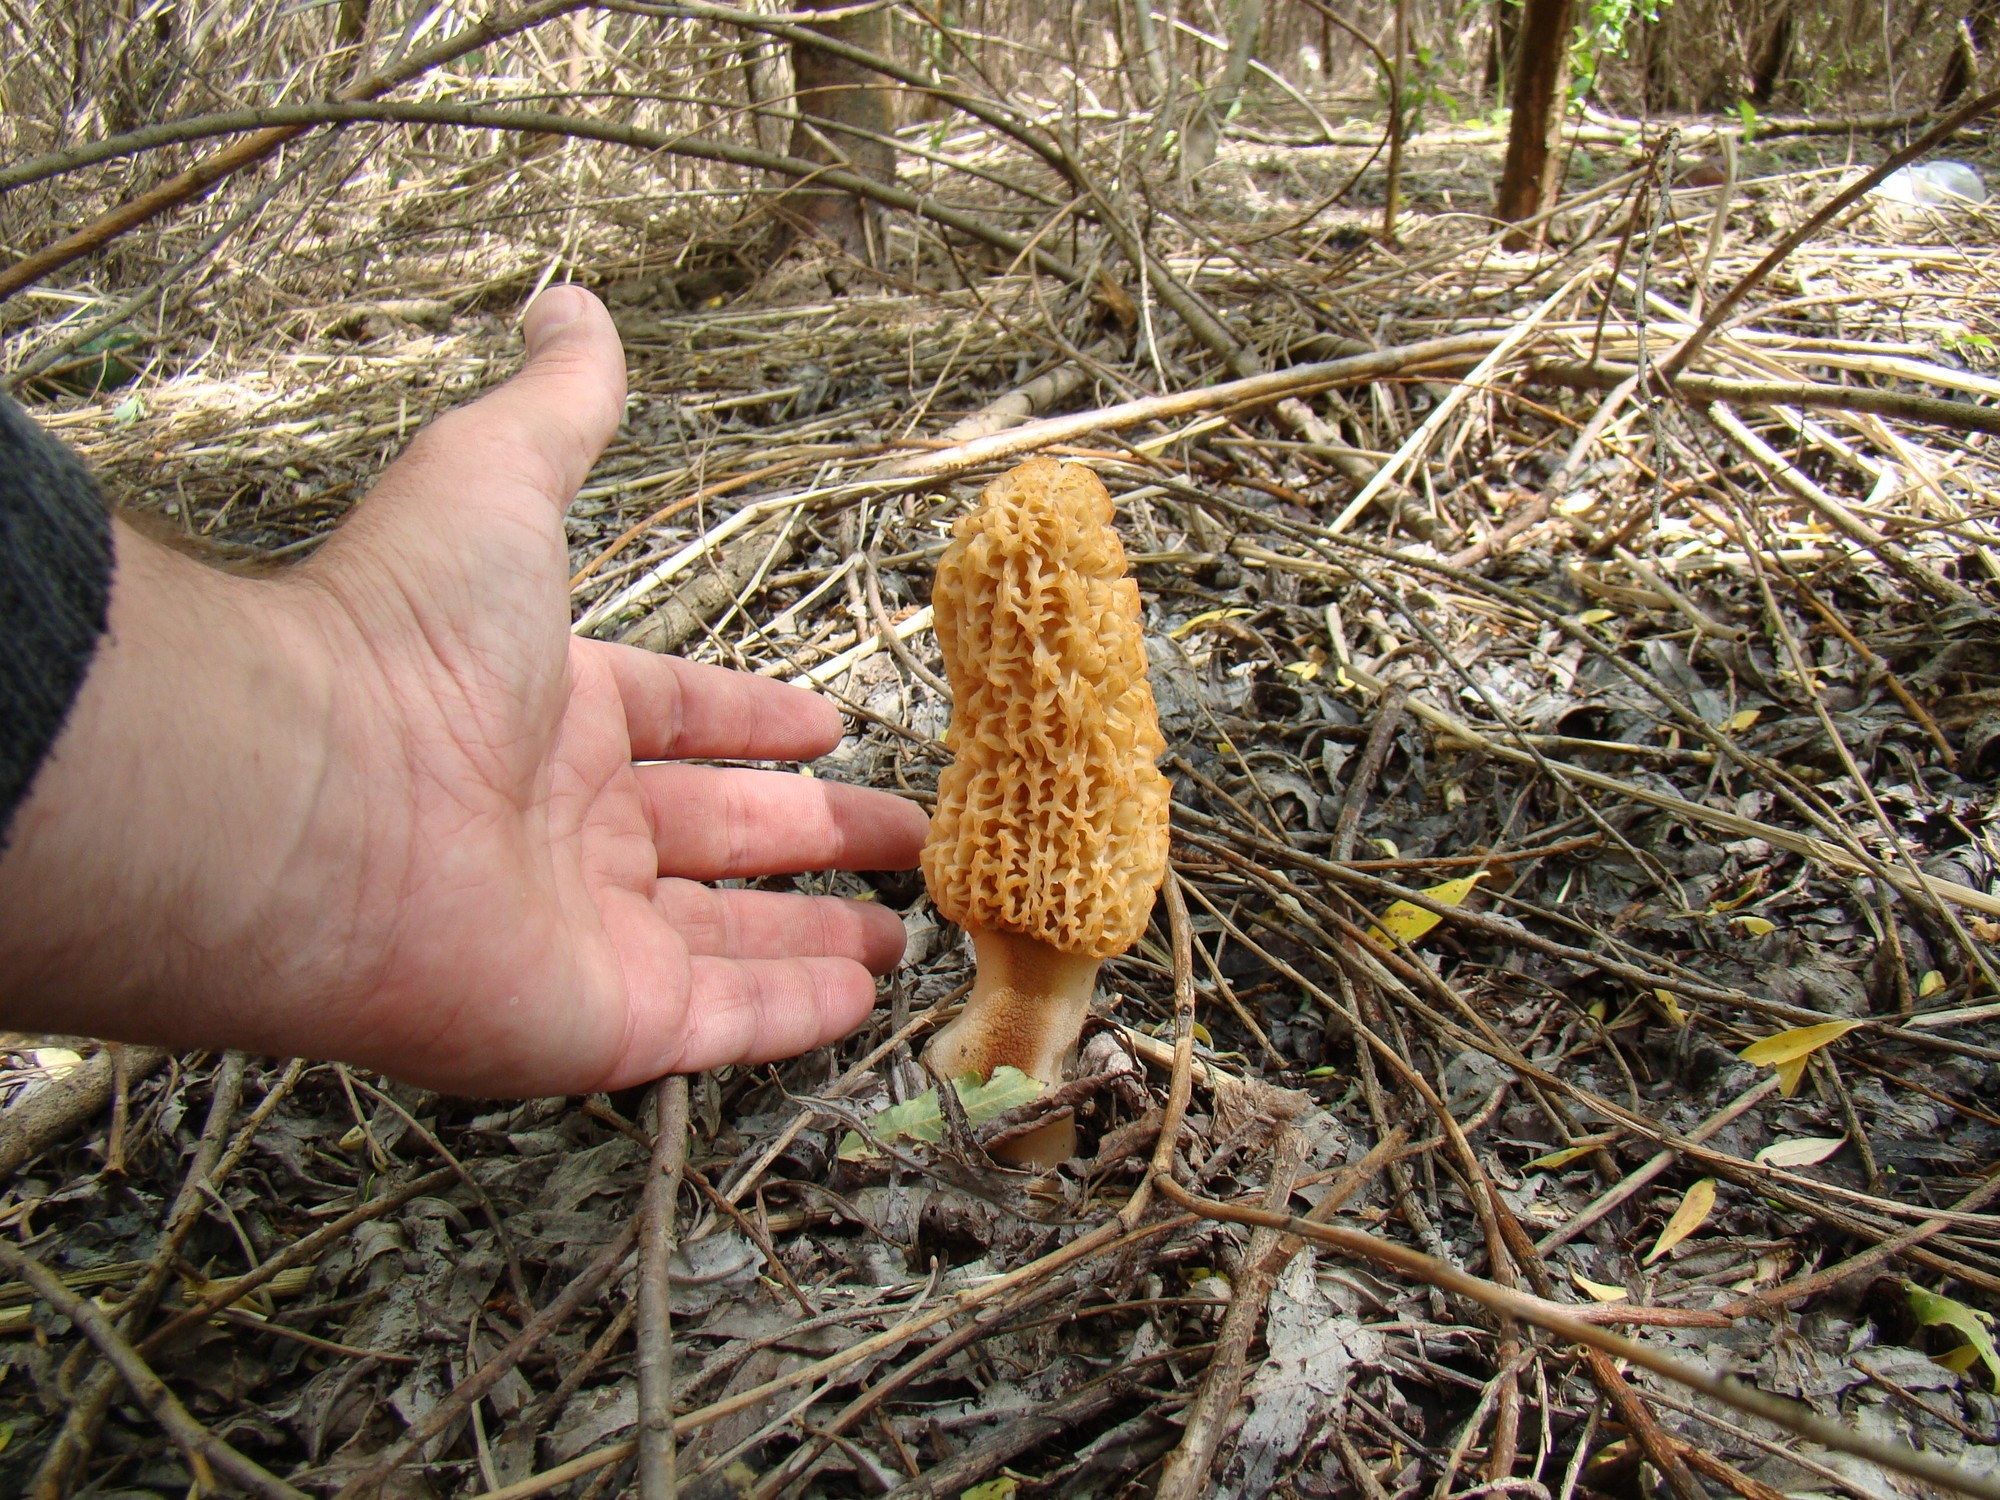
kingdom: Fungi
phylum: Ascomycota
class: Pezizomycetes
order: Pezizales
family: Morchellaceae
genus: Morchella
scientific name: Morchella esculenta
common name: Morel
